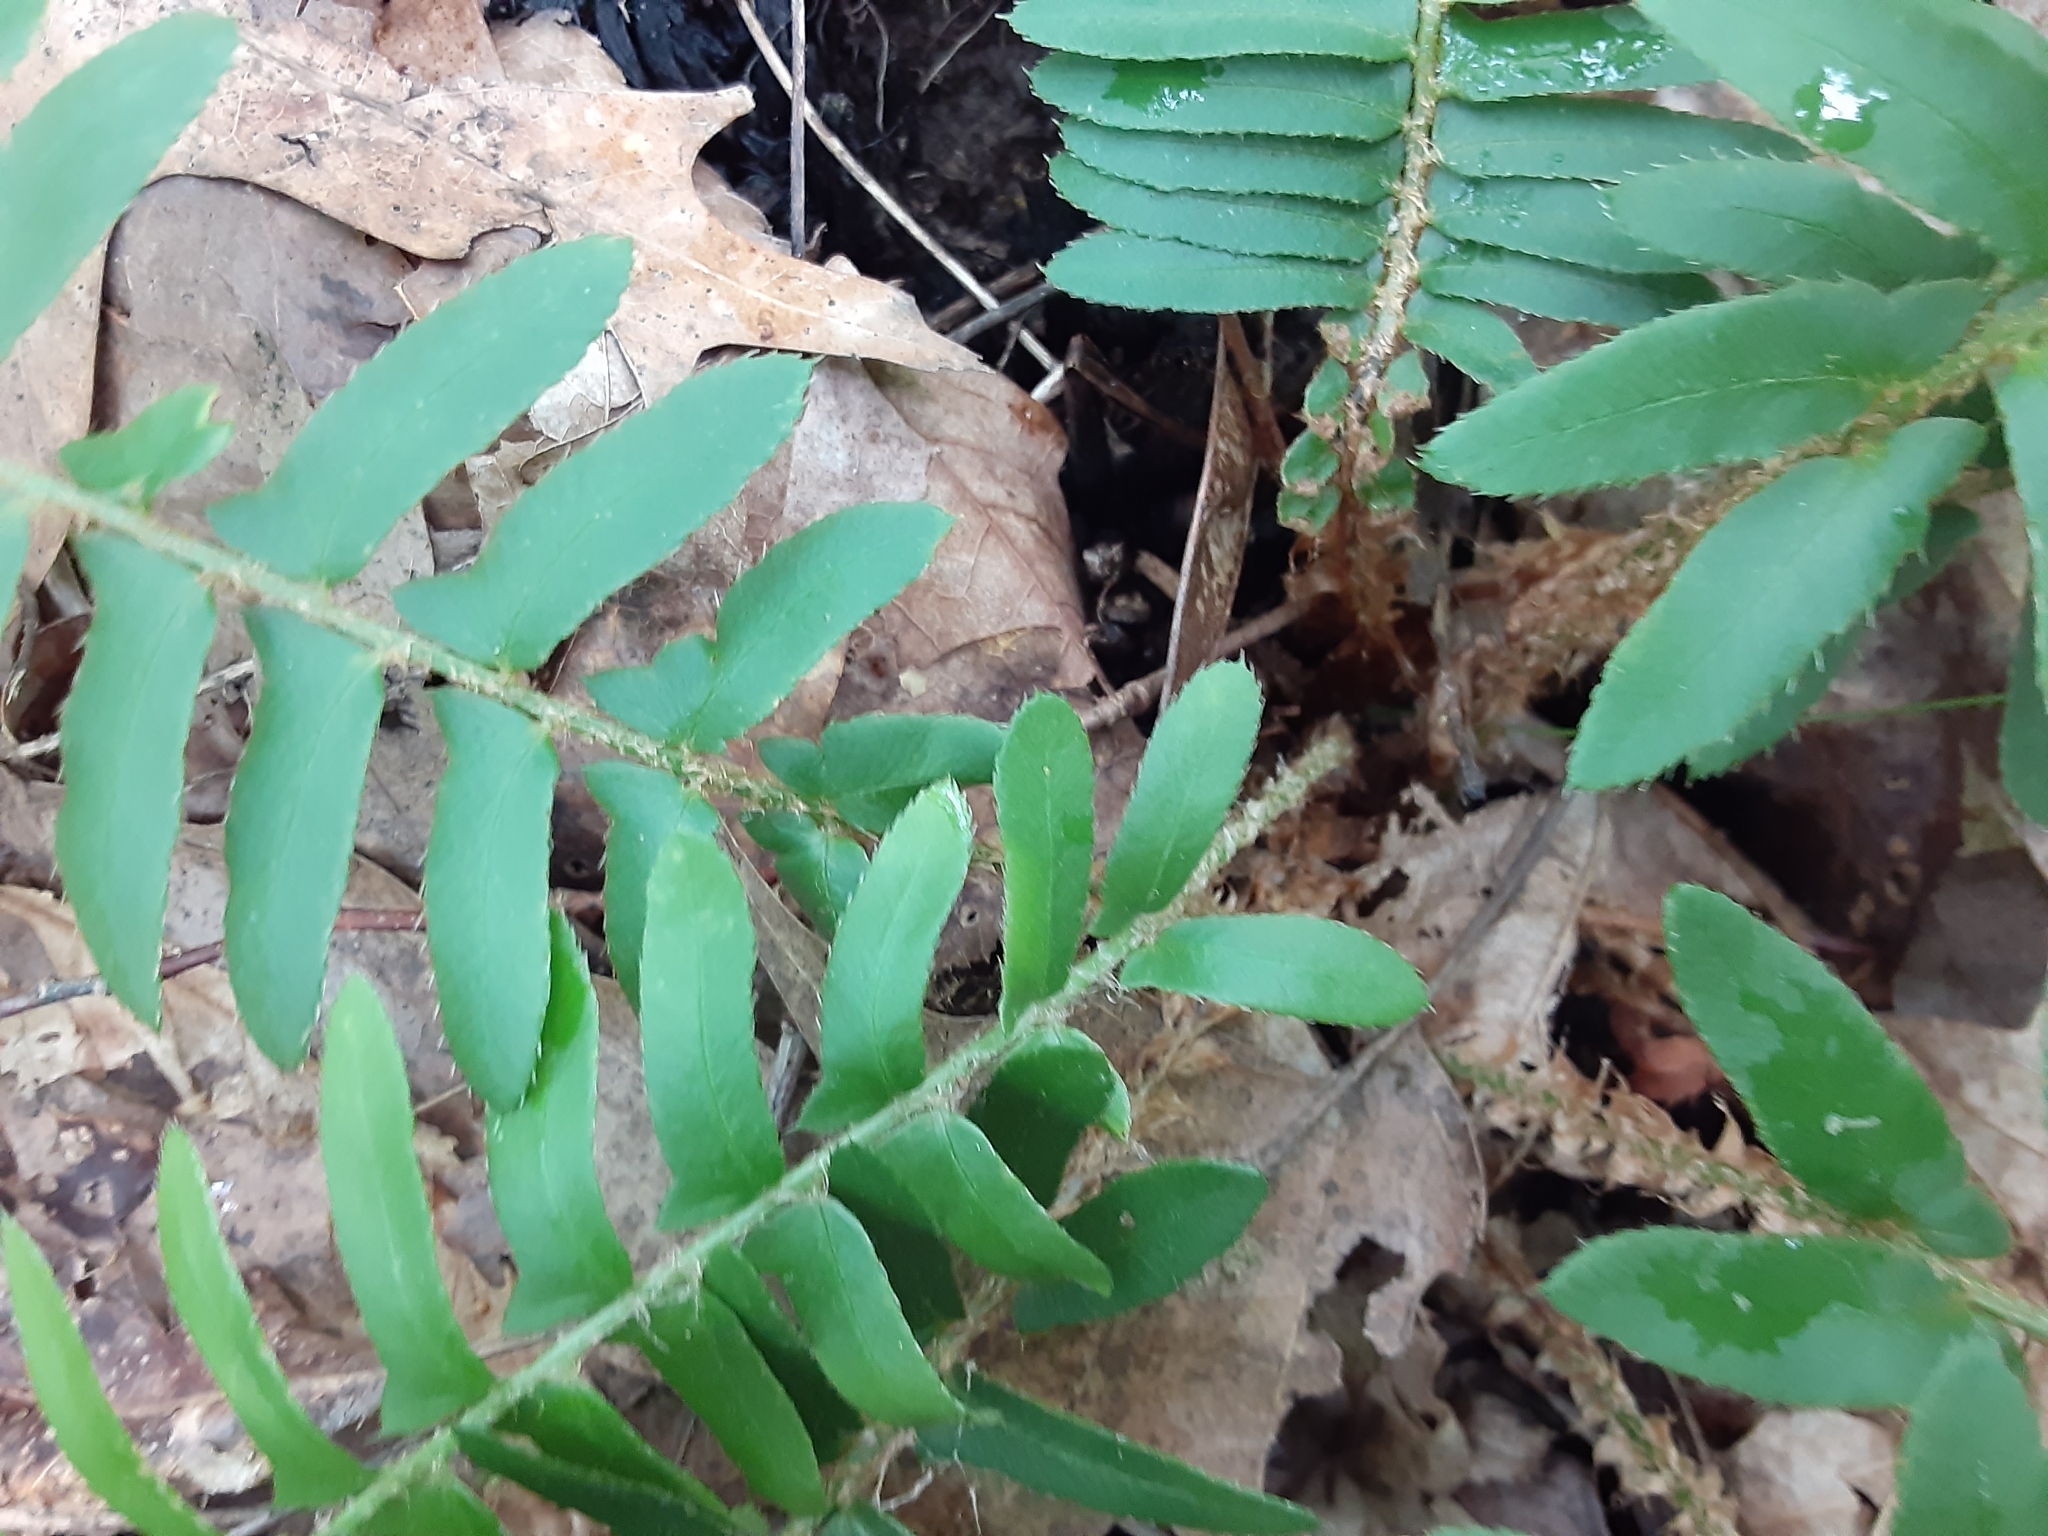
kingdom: Plantae
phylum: Tracheophyta
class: Polypodiopsida
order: Polypodiales
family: Dryopteridaceae
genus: Polystichum
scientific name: Polystichum acrostichoides
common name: Christmas fern
